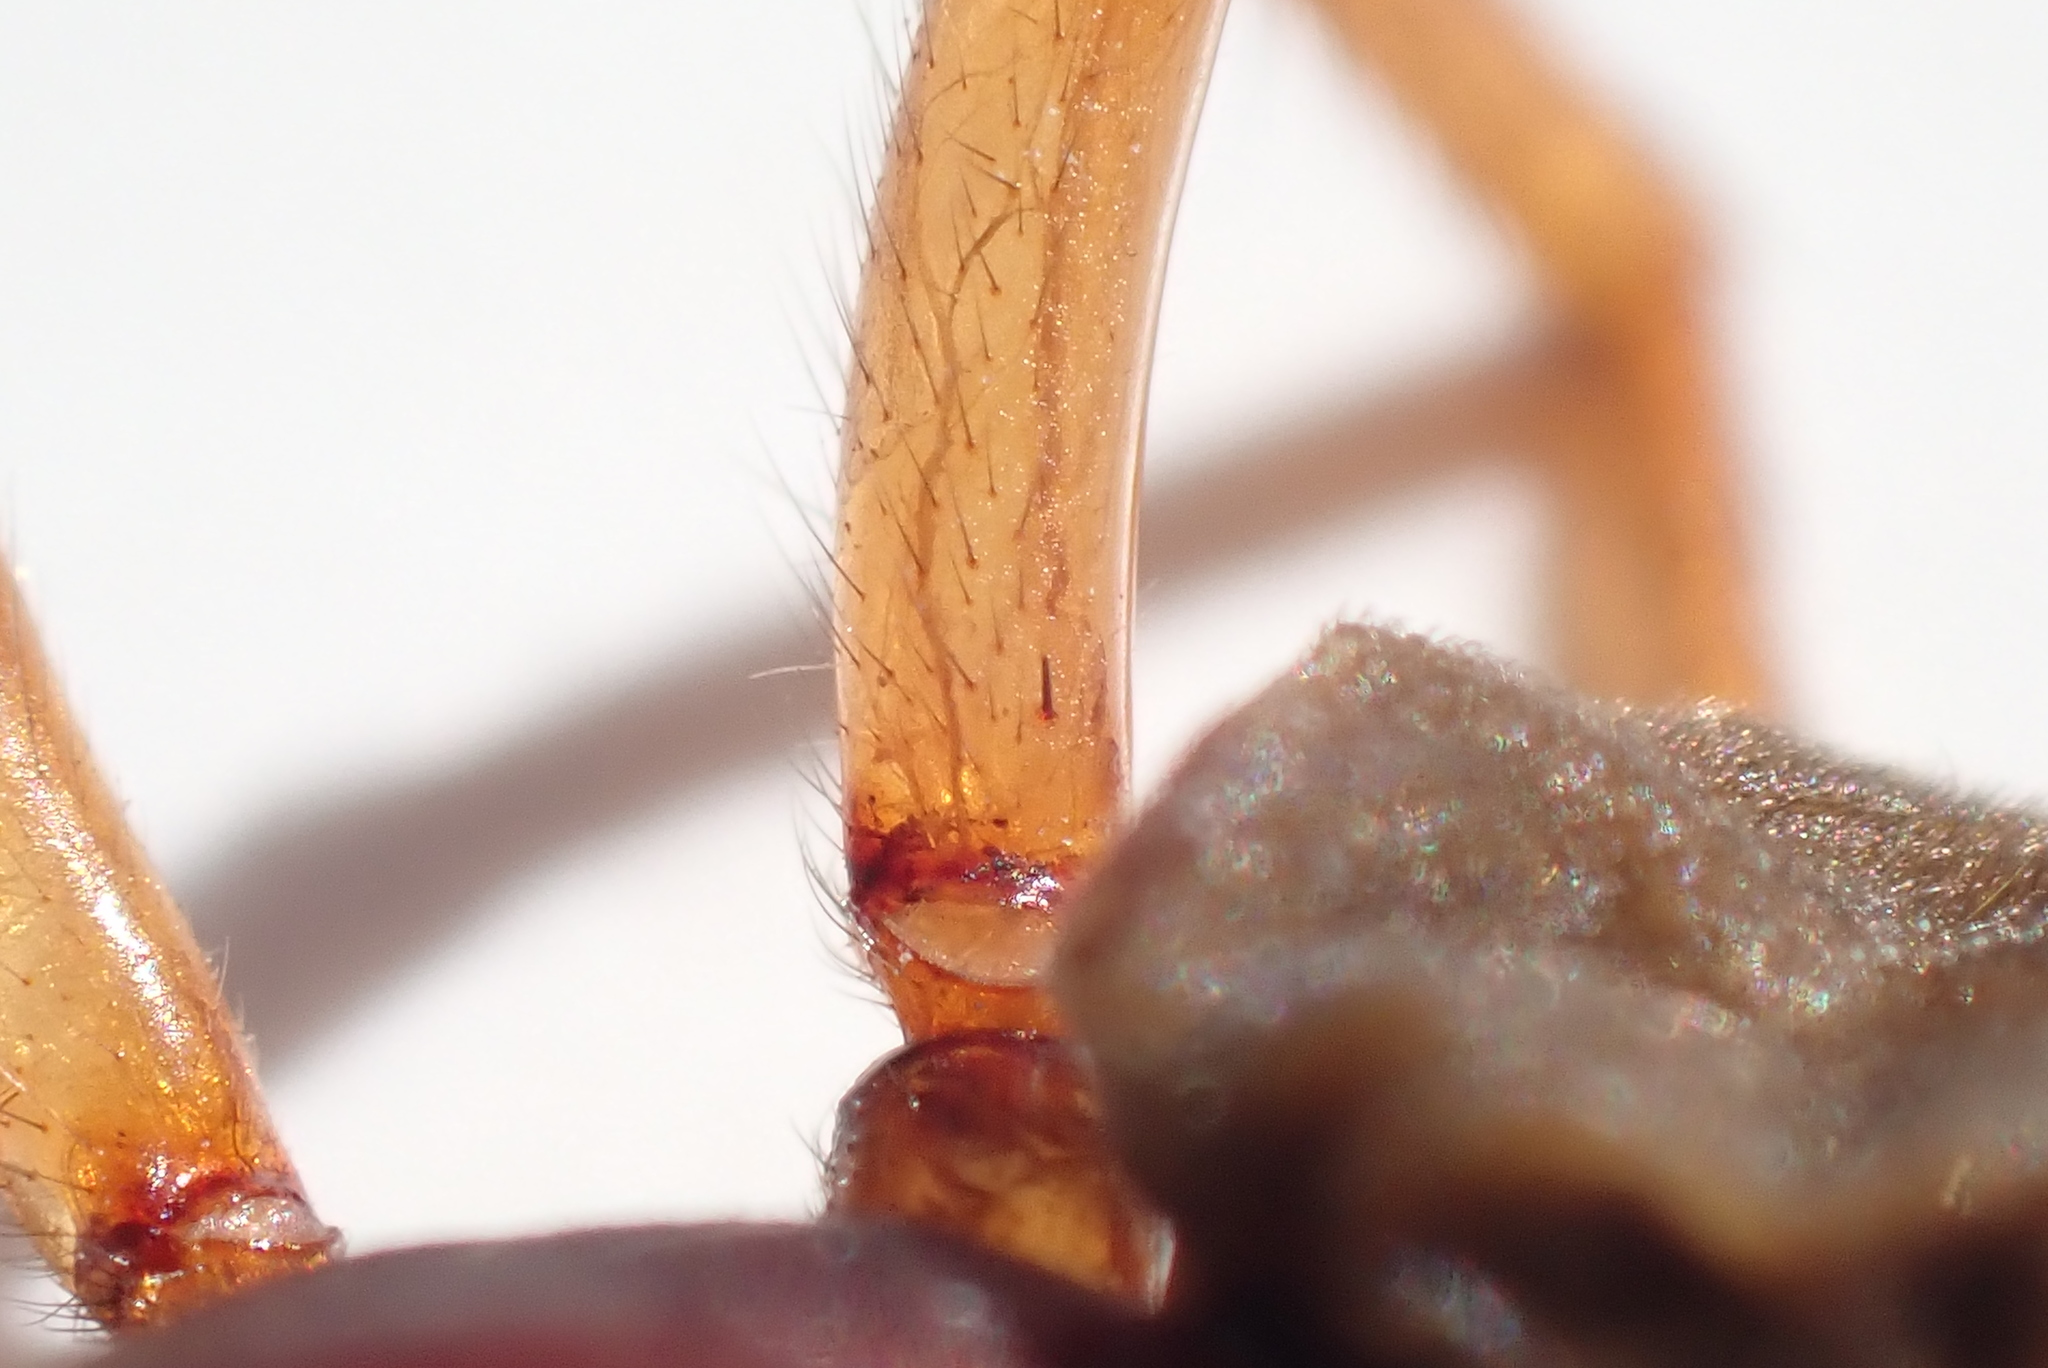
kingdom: Animalia
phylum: Arthropoda
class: Arachnida
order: Araneae
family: Dysderidae
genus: Dysdera
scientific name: Dysdera crocata
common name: Woodlouse spider
